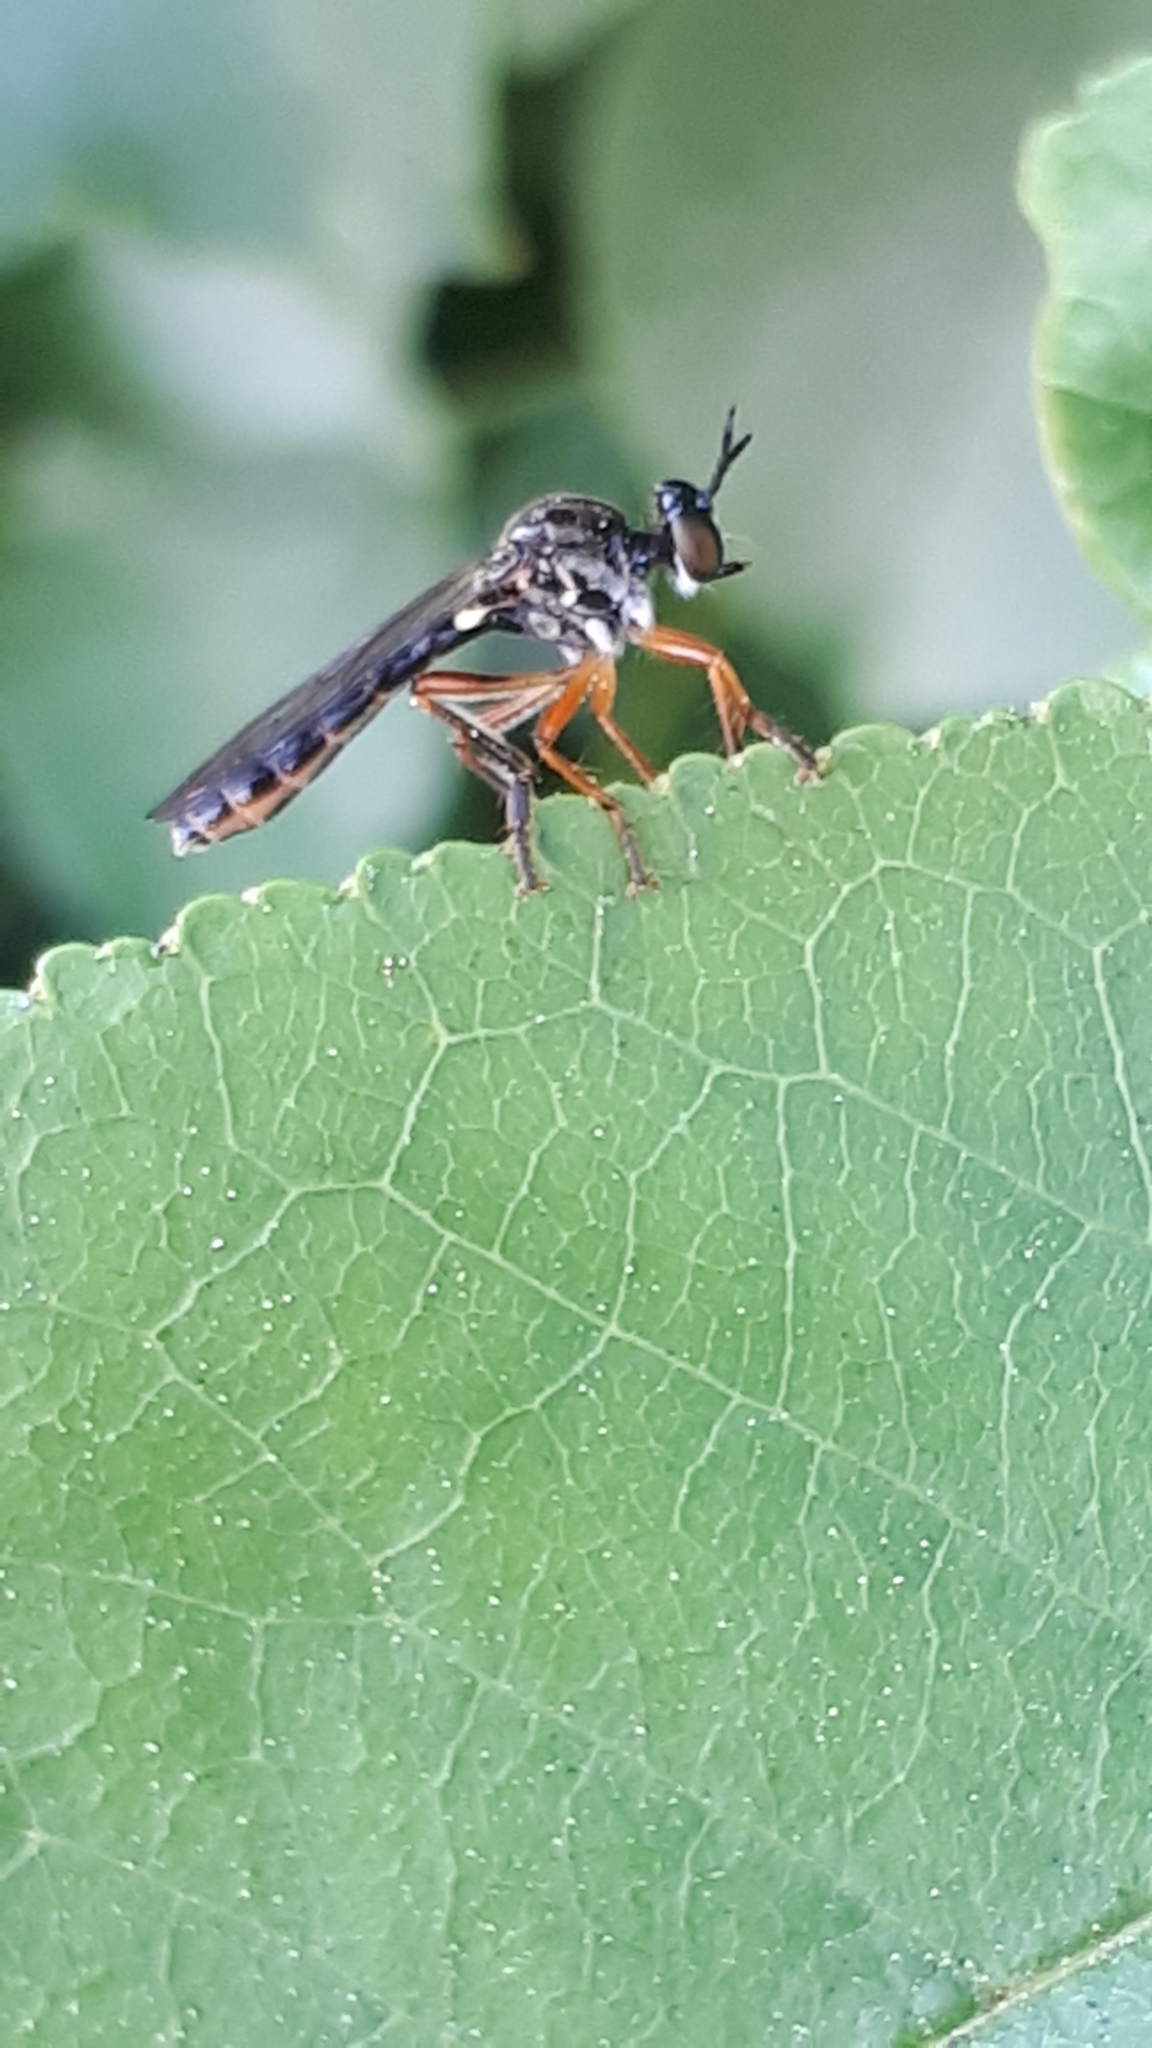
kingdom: Animalia
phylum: Arthropoda
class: Insecta
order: Diptera
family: Asilidae
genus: Dioctria
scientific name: Dioctria hyalipennis
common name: Stripe-legged robberfly
